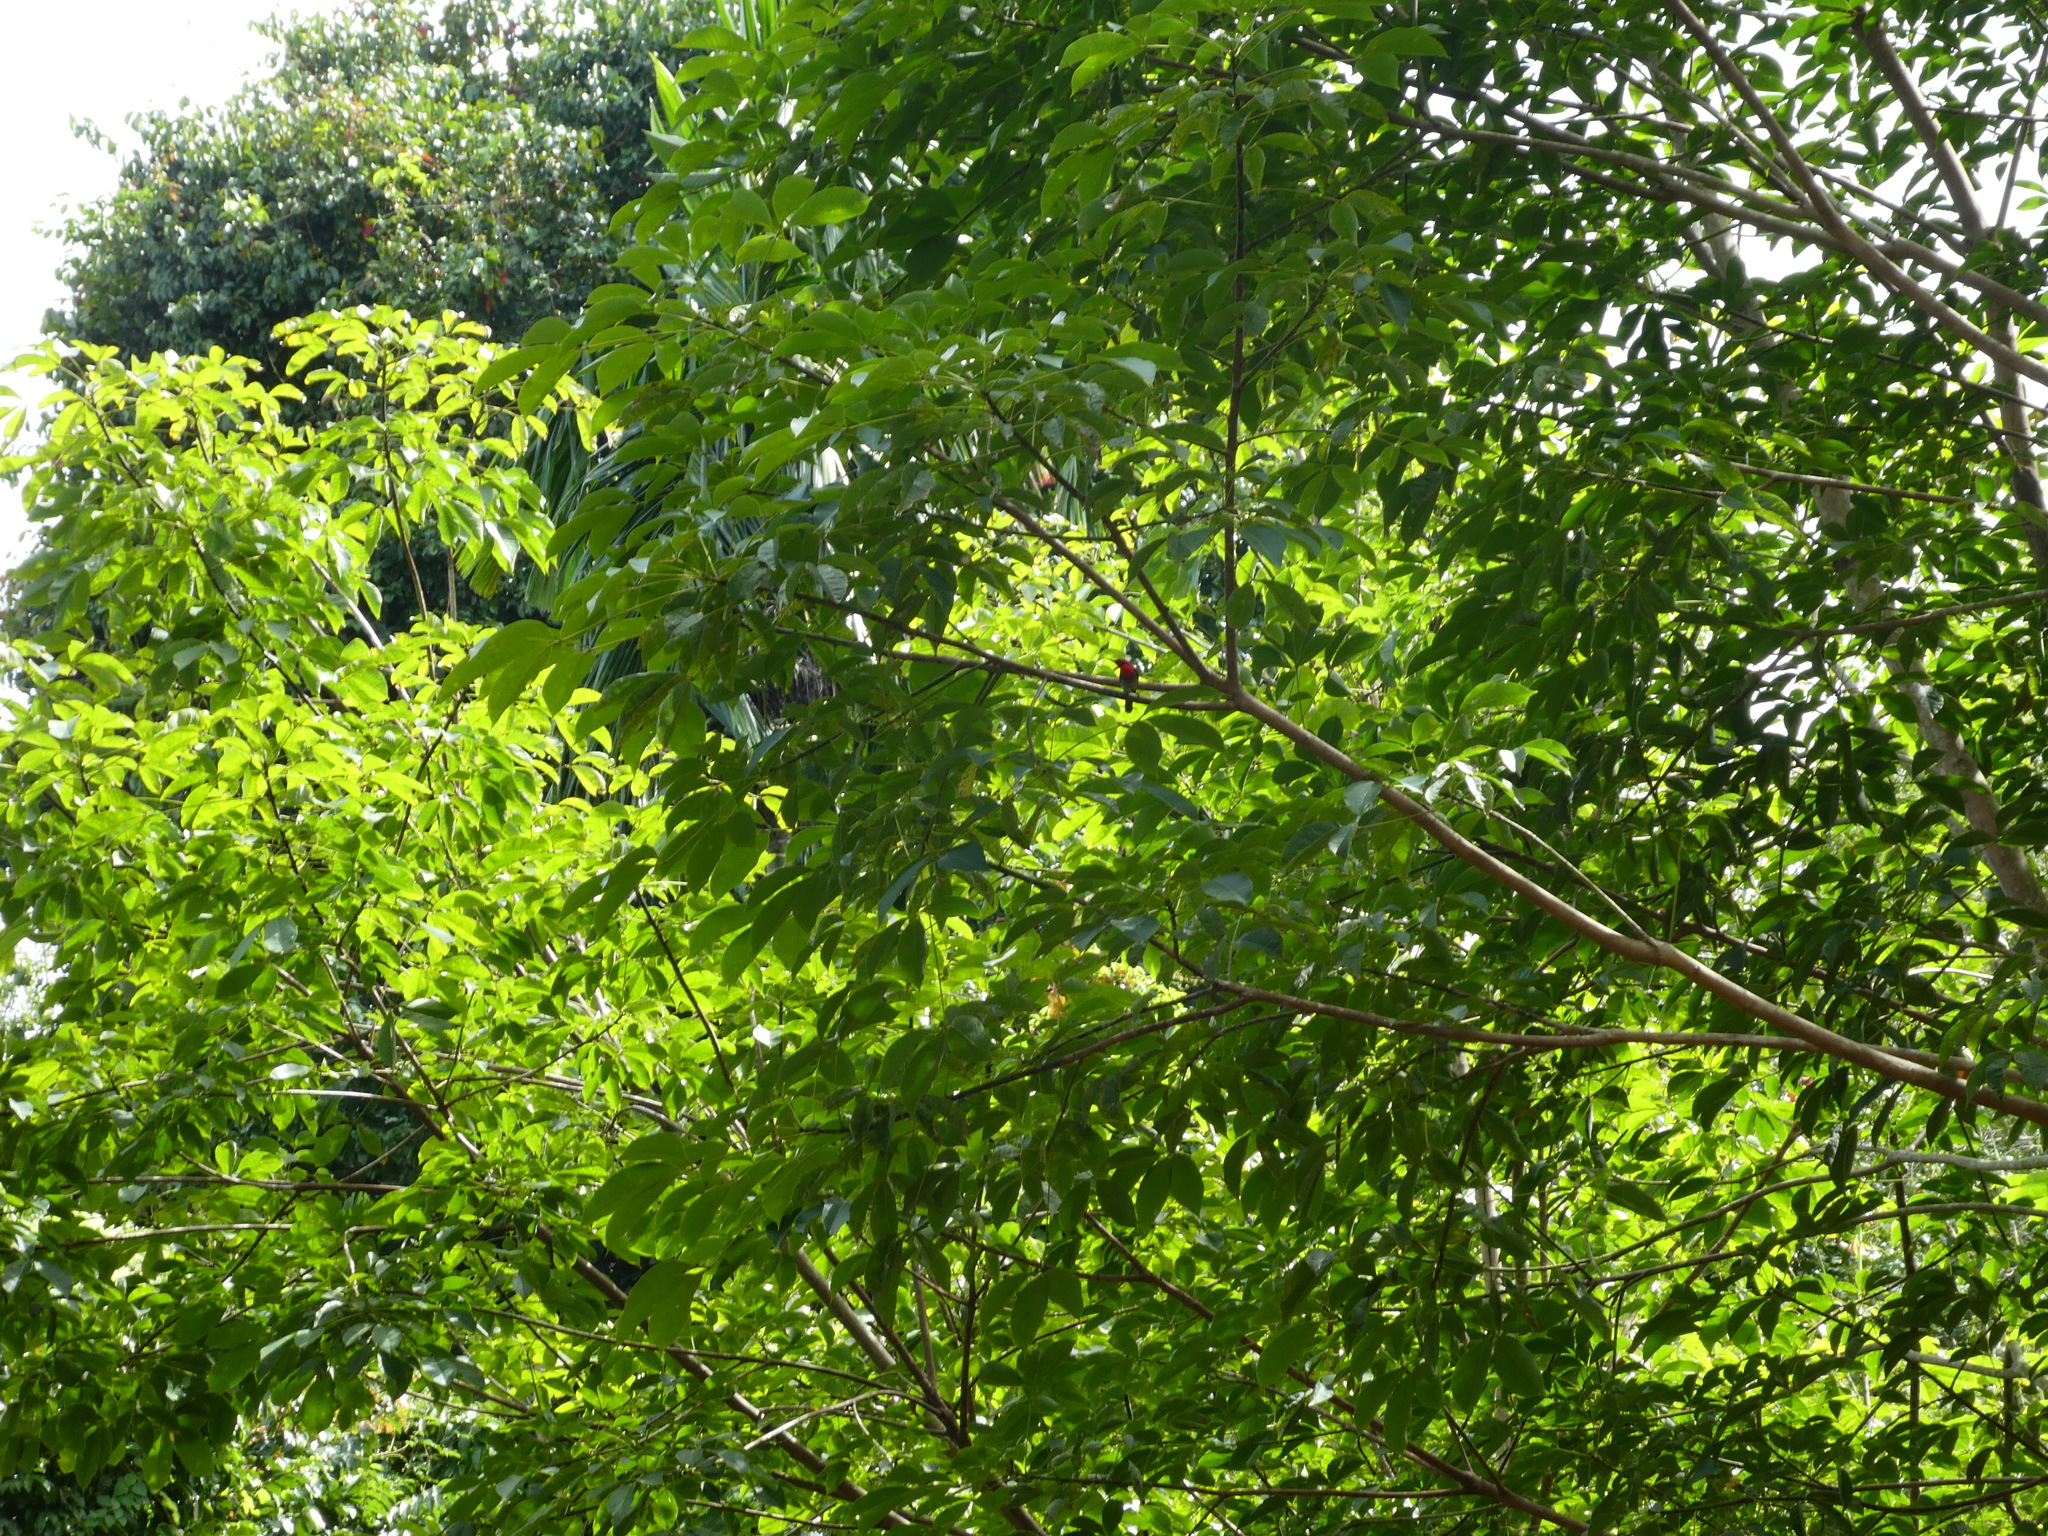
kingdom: Animalia
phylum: Chordata
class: Aves
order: Passeriformes
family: Nectariniidae
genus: Aethopyga
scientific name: Aethopyga siparaja
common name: Crimson sunbird
